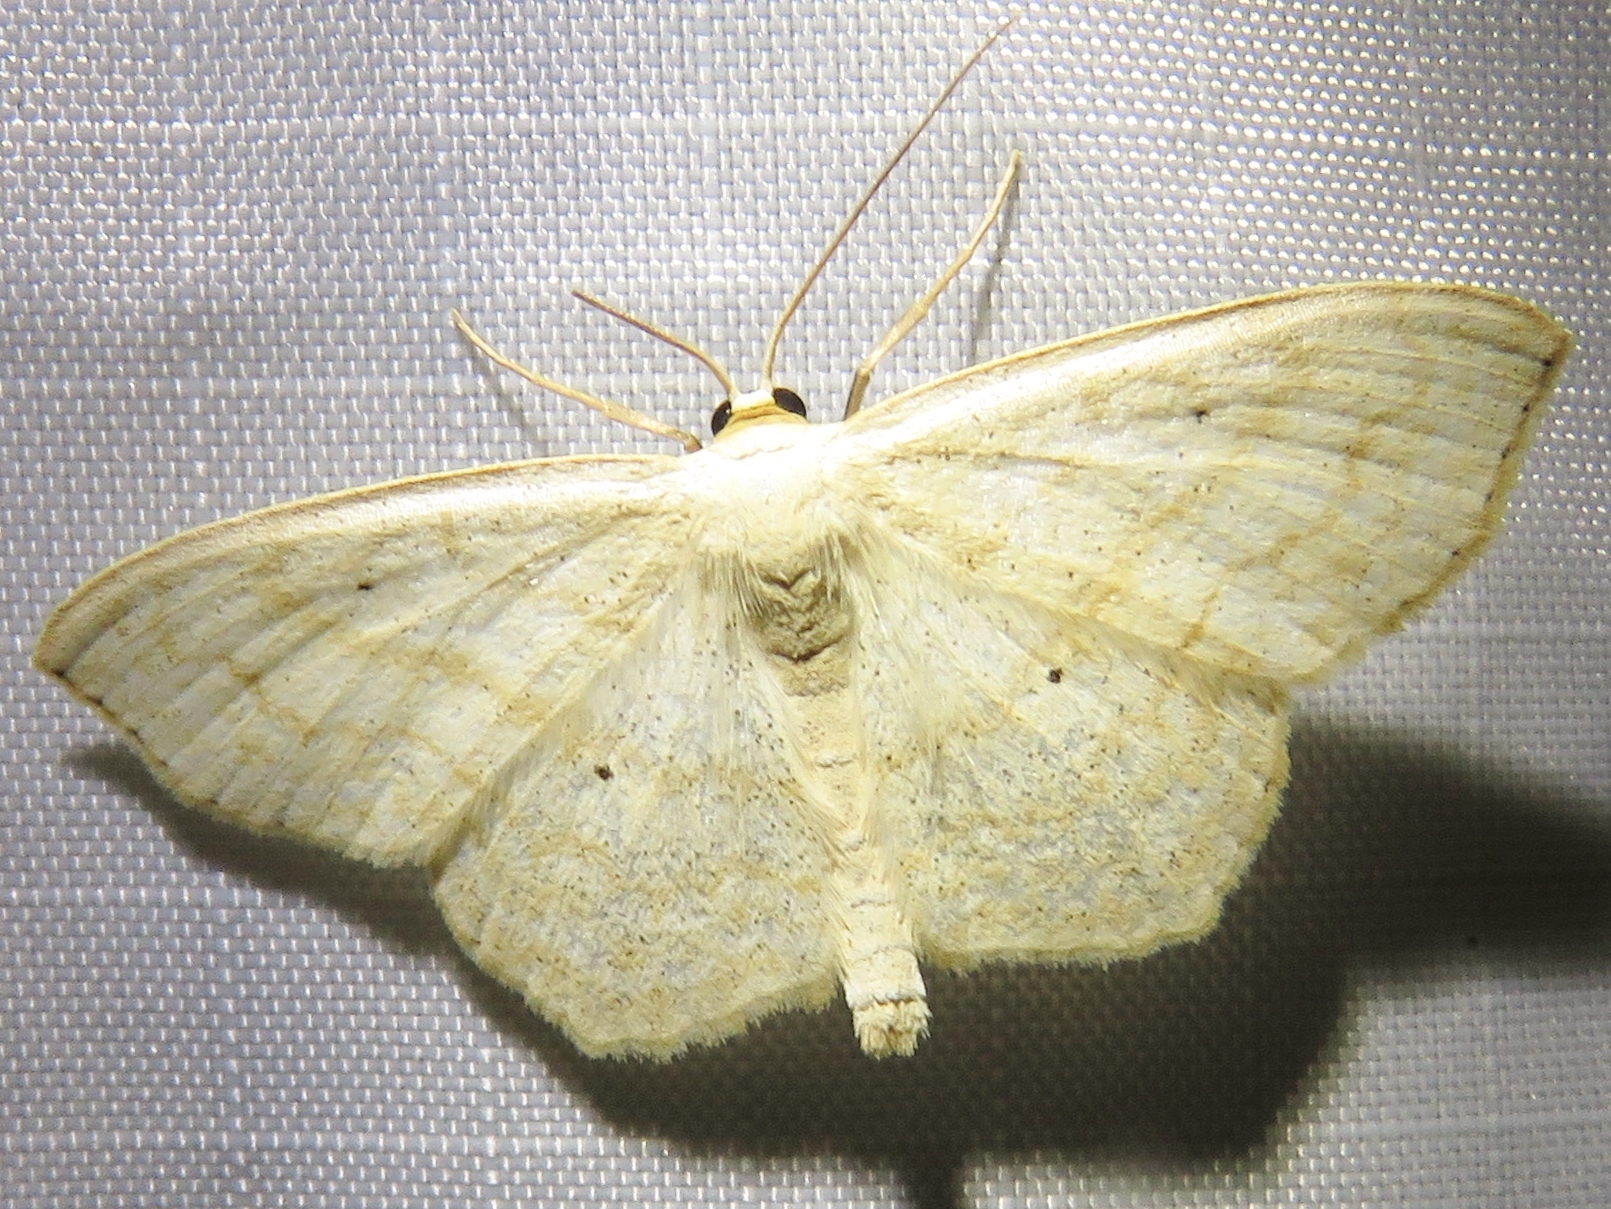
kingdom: Animalia
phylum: Arthropoda
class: Insecta
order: Lepidoptera
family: Geometridae
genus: Scopula
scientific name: Scopula limboundata
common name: Large lace border
